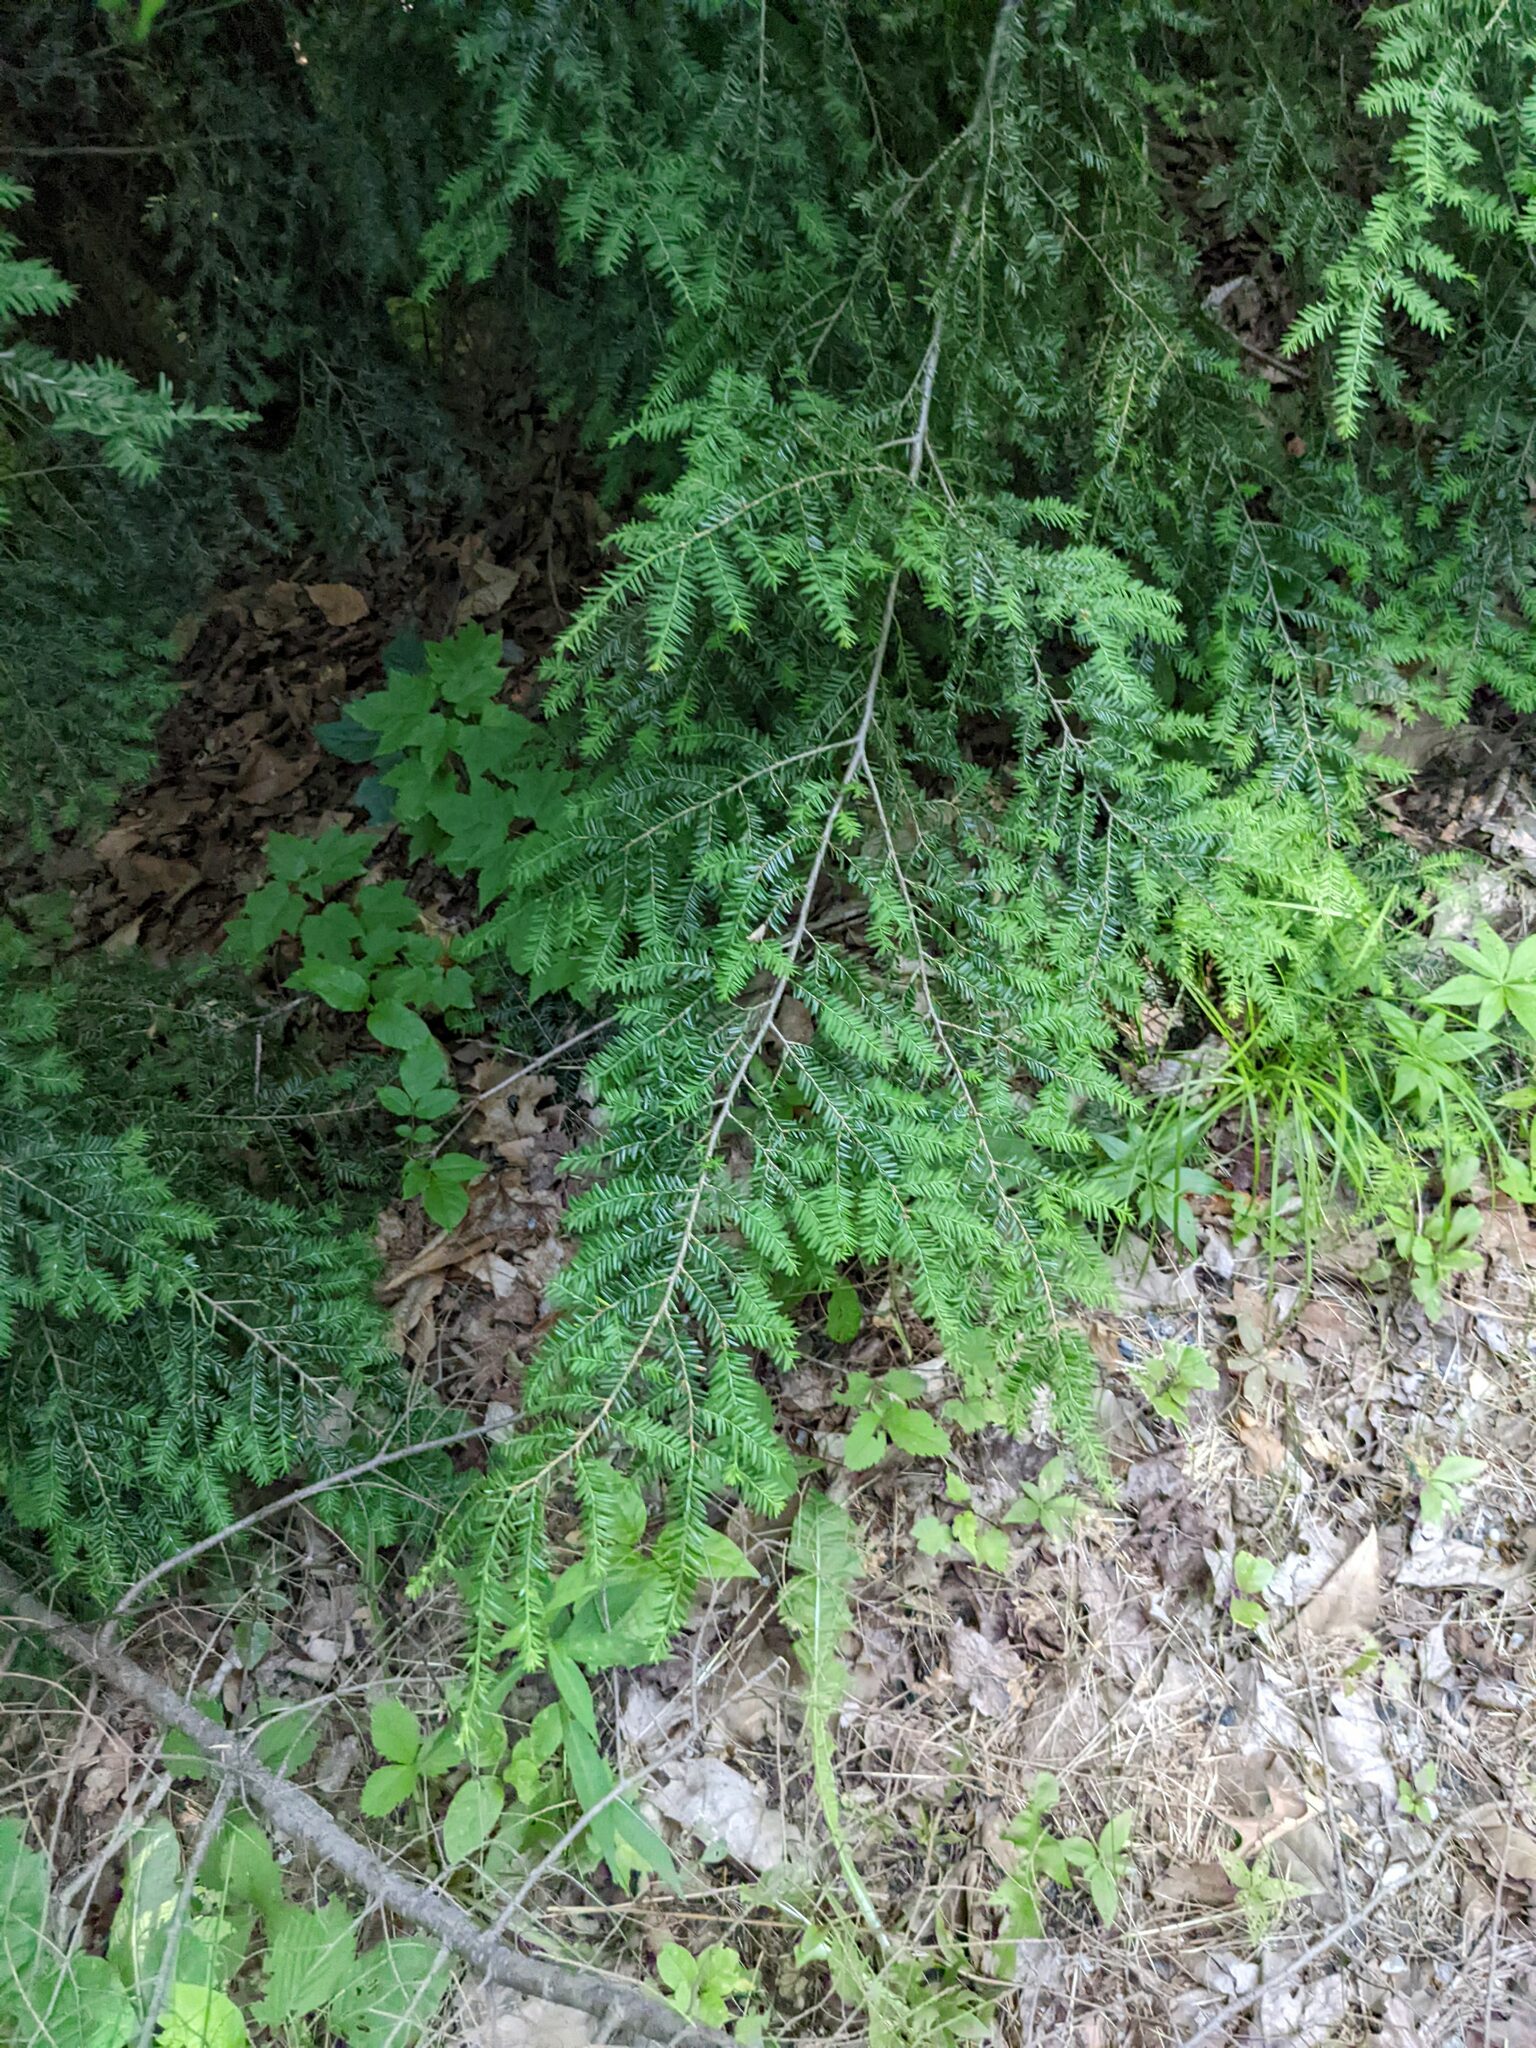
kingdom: Plantae
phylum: Tracheophyta
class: Pinopsida
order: Pinales
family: Pinaceae
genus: Tsuga
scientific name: Tsuga canadensis
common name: Eastern hemlock
